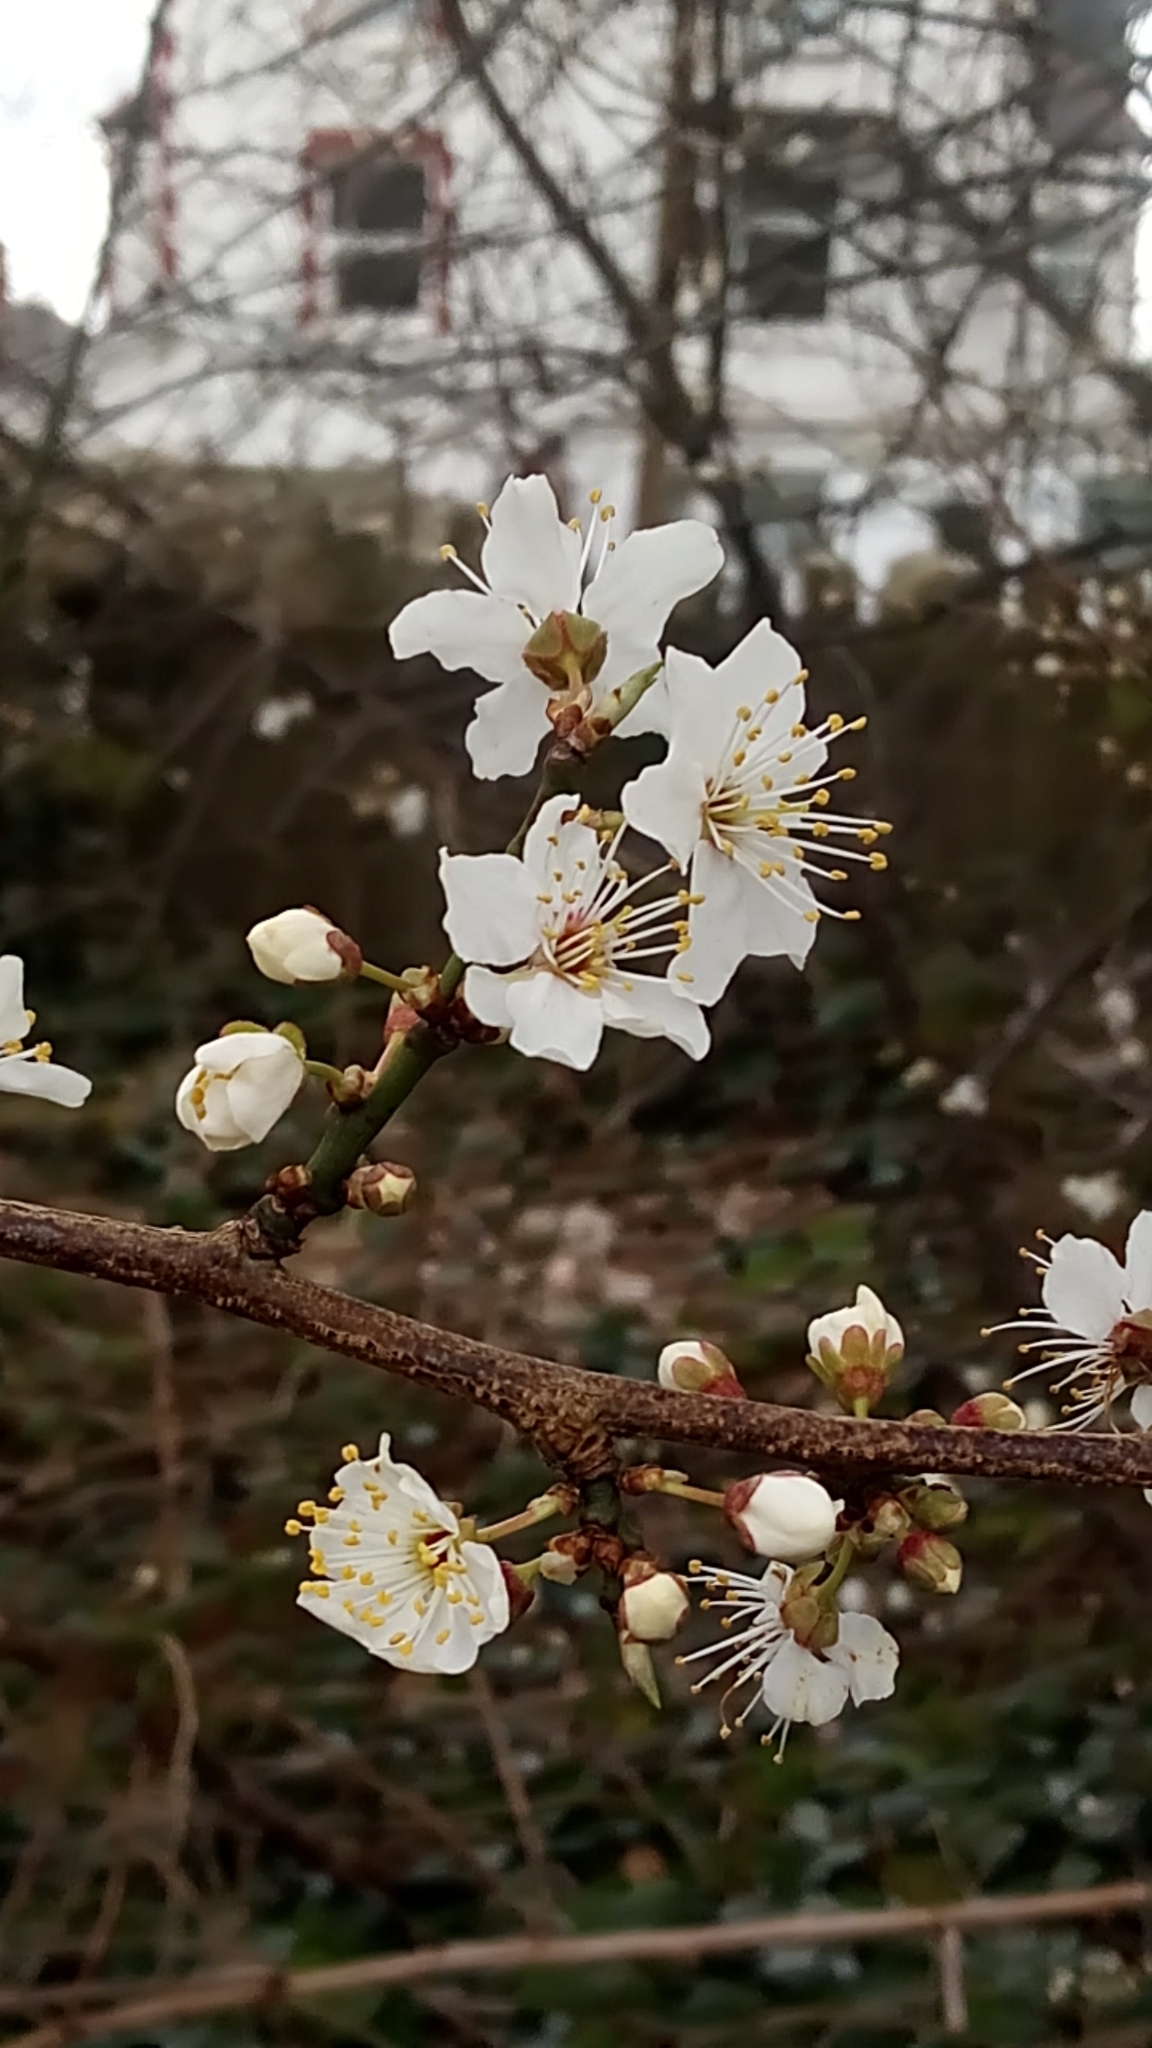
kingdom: Plantae
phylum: Tracheophyta
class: Magnoliopsida
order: Rosales
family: Rosaceae
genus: Prunus
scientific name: Prunus cerasifera
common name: Cherry plum
